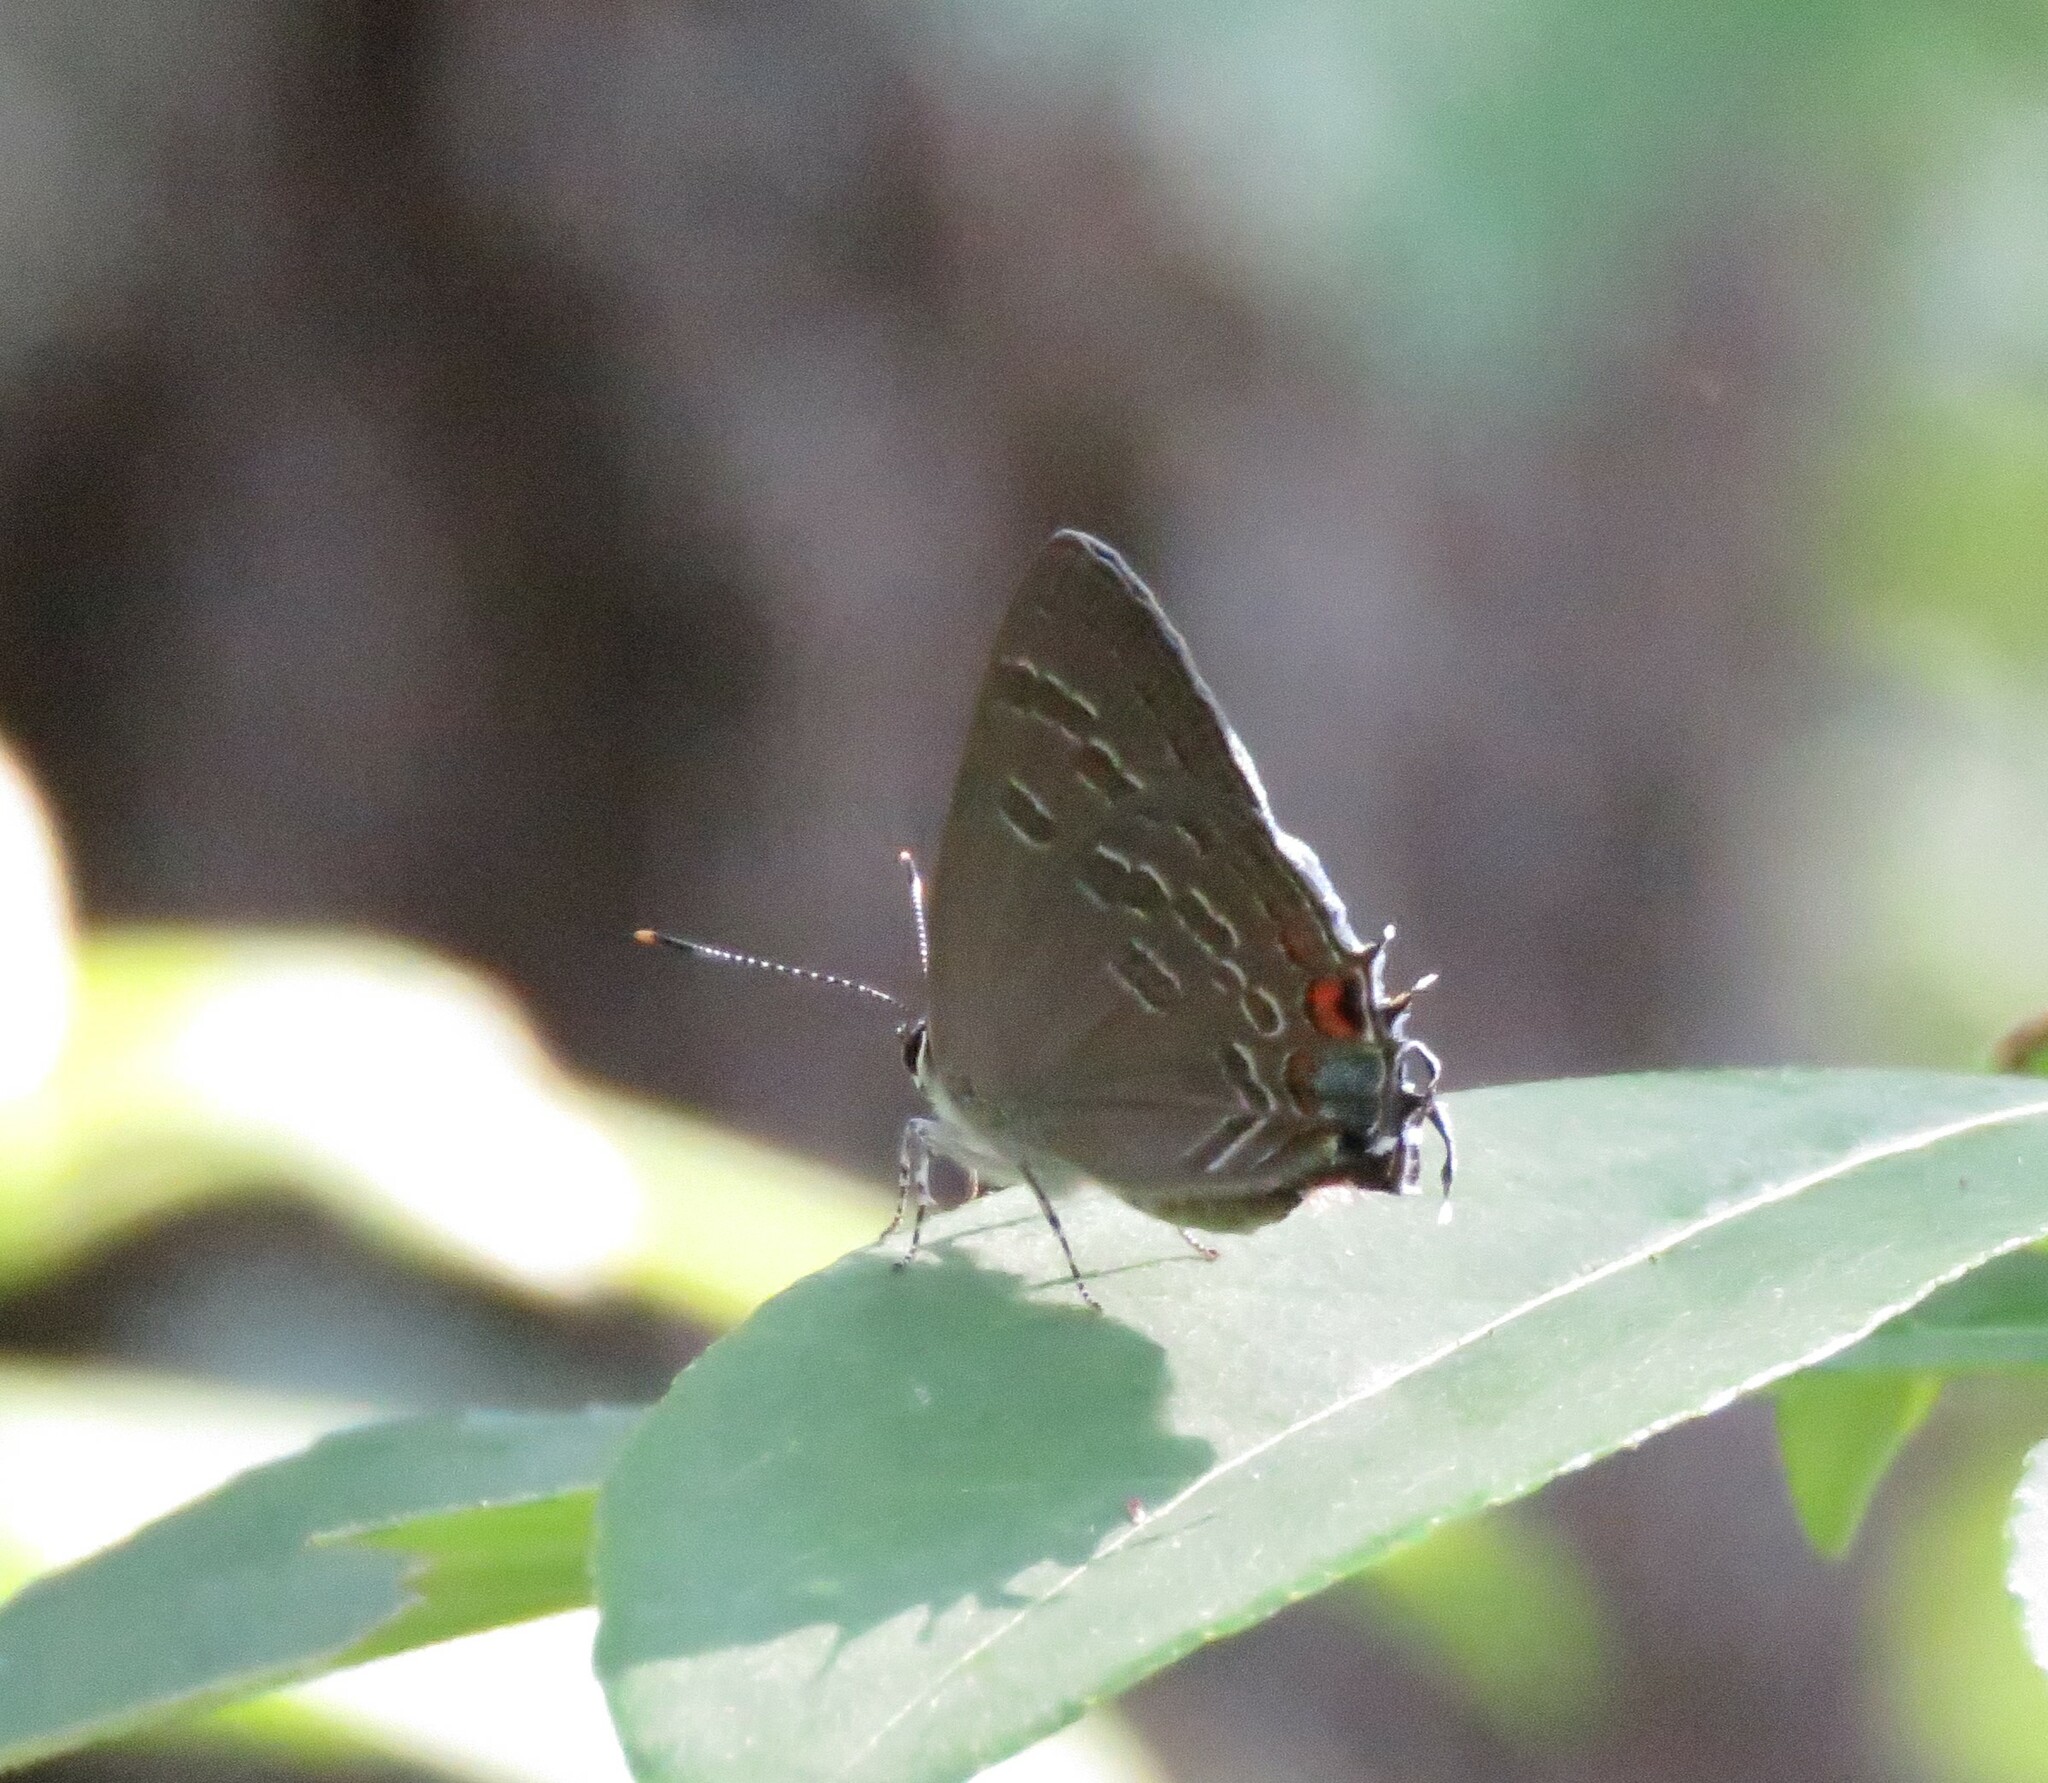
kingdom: Animalia
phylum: Arthropoda
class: Insecta
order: Lepidoptera
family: Lycaenidae
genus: Strymon
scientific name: Strymon kingi
